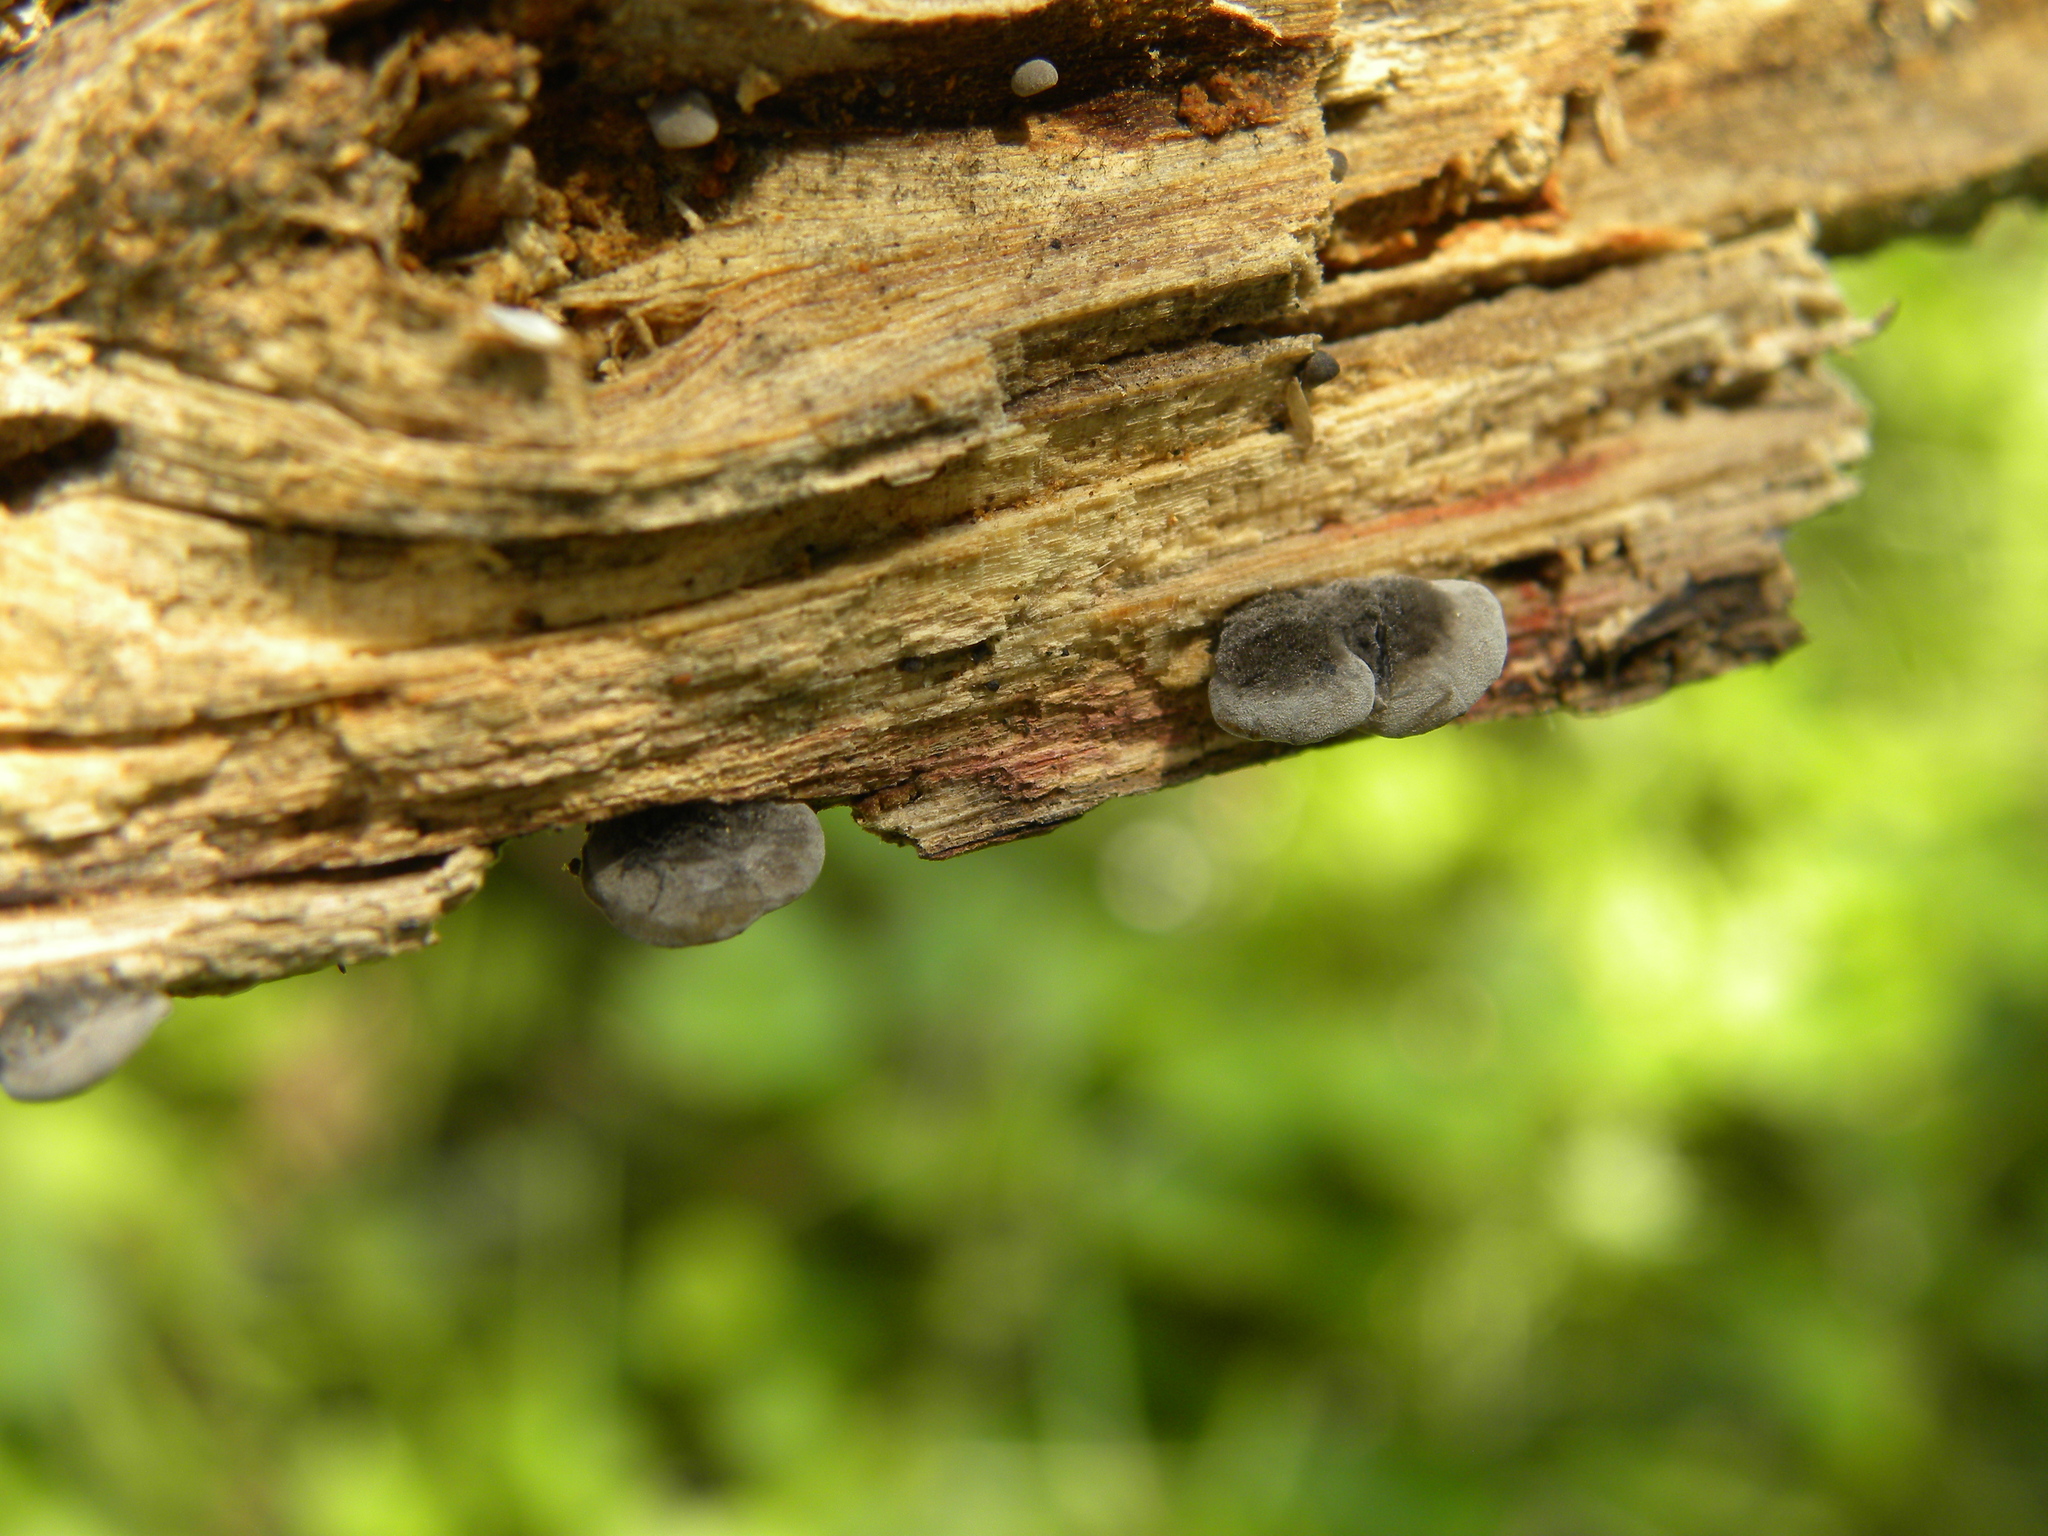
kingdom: Fungi
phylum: Basidiomycota
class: Agaricomycetes
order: Agaricales
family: Pleurotaceae
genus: Resupinatus
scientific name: Resupinatus applicatus
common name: Smoked oysterling
